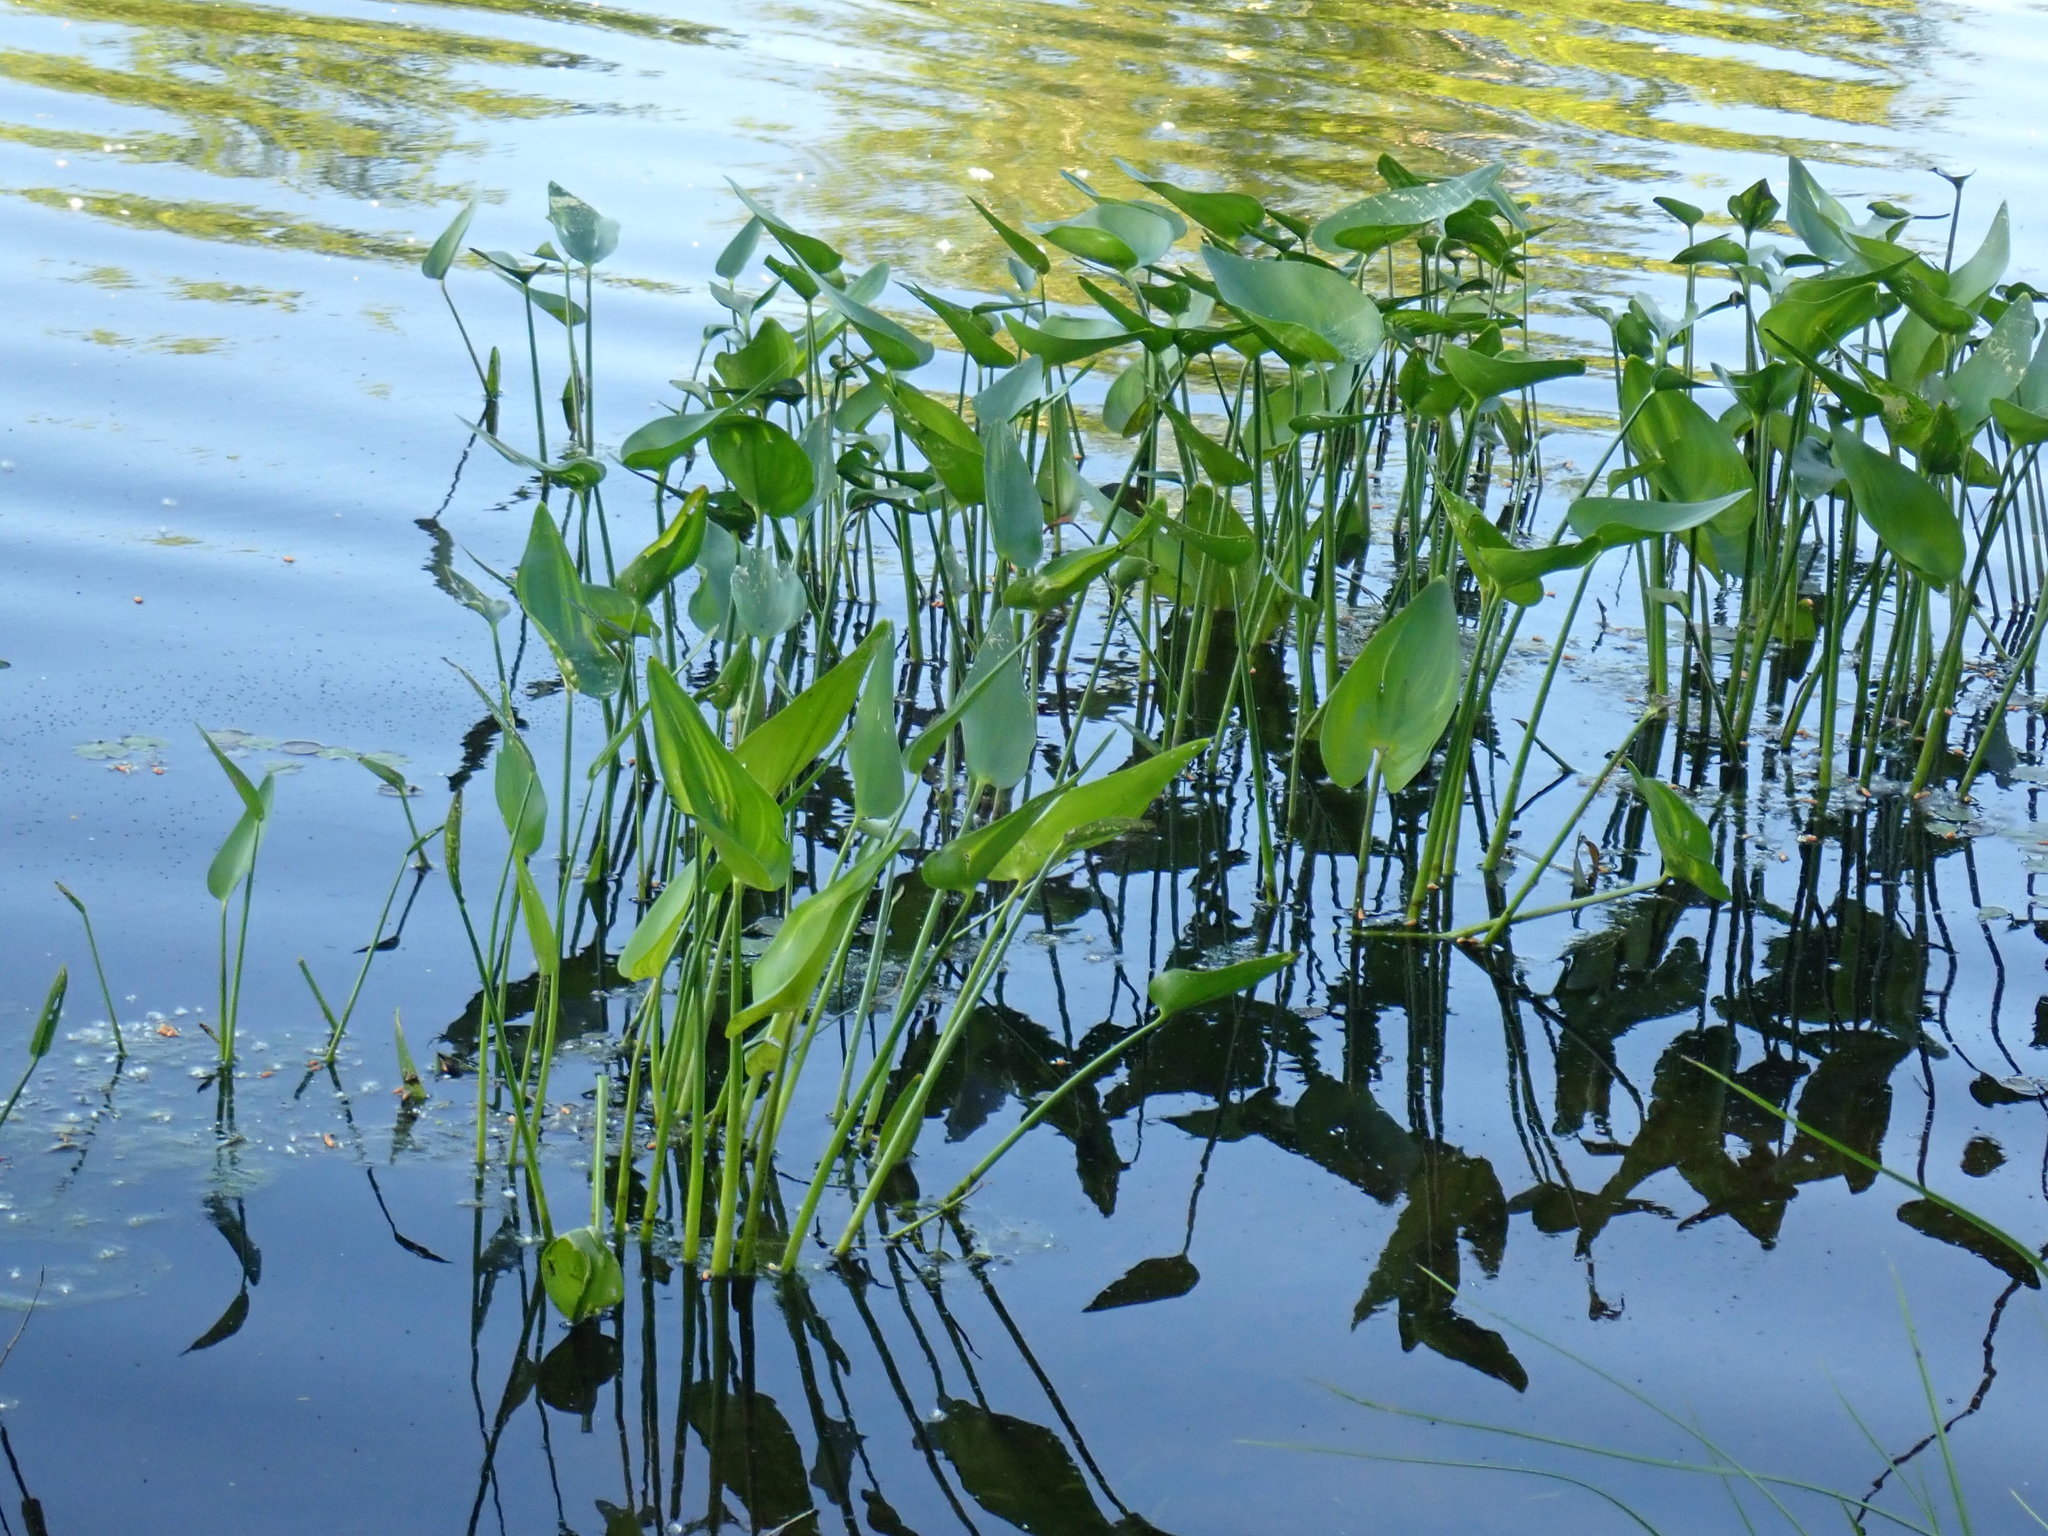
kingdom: Plantae
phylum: Tracheophyta
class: Liliopsida
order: Commelinales
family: Pontederiaceae
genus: Pontederia
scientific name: Pontederia cordata
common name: Pickerelweed
